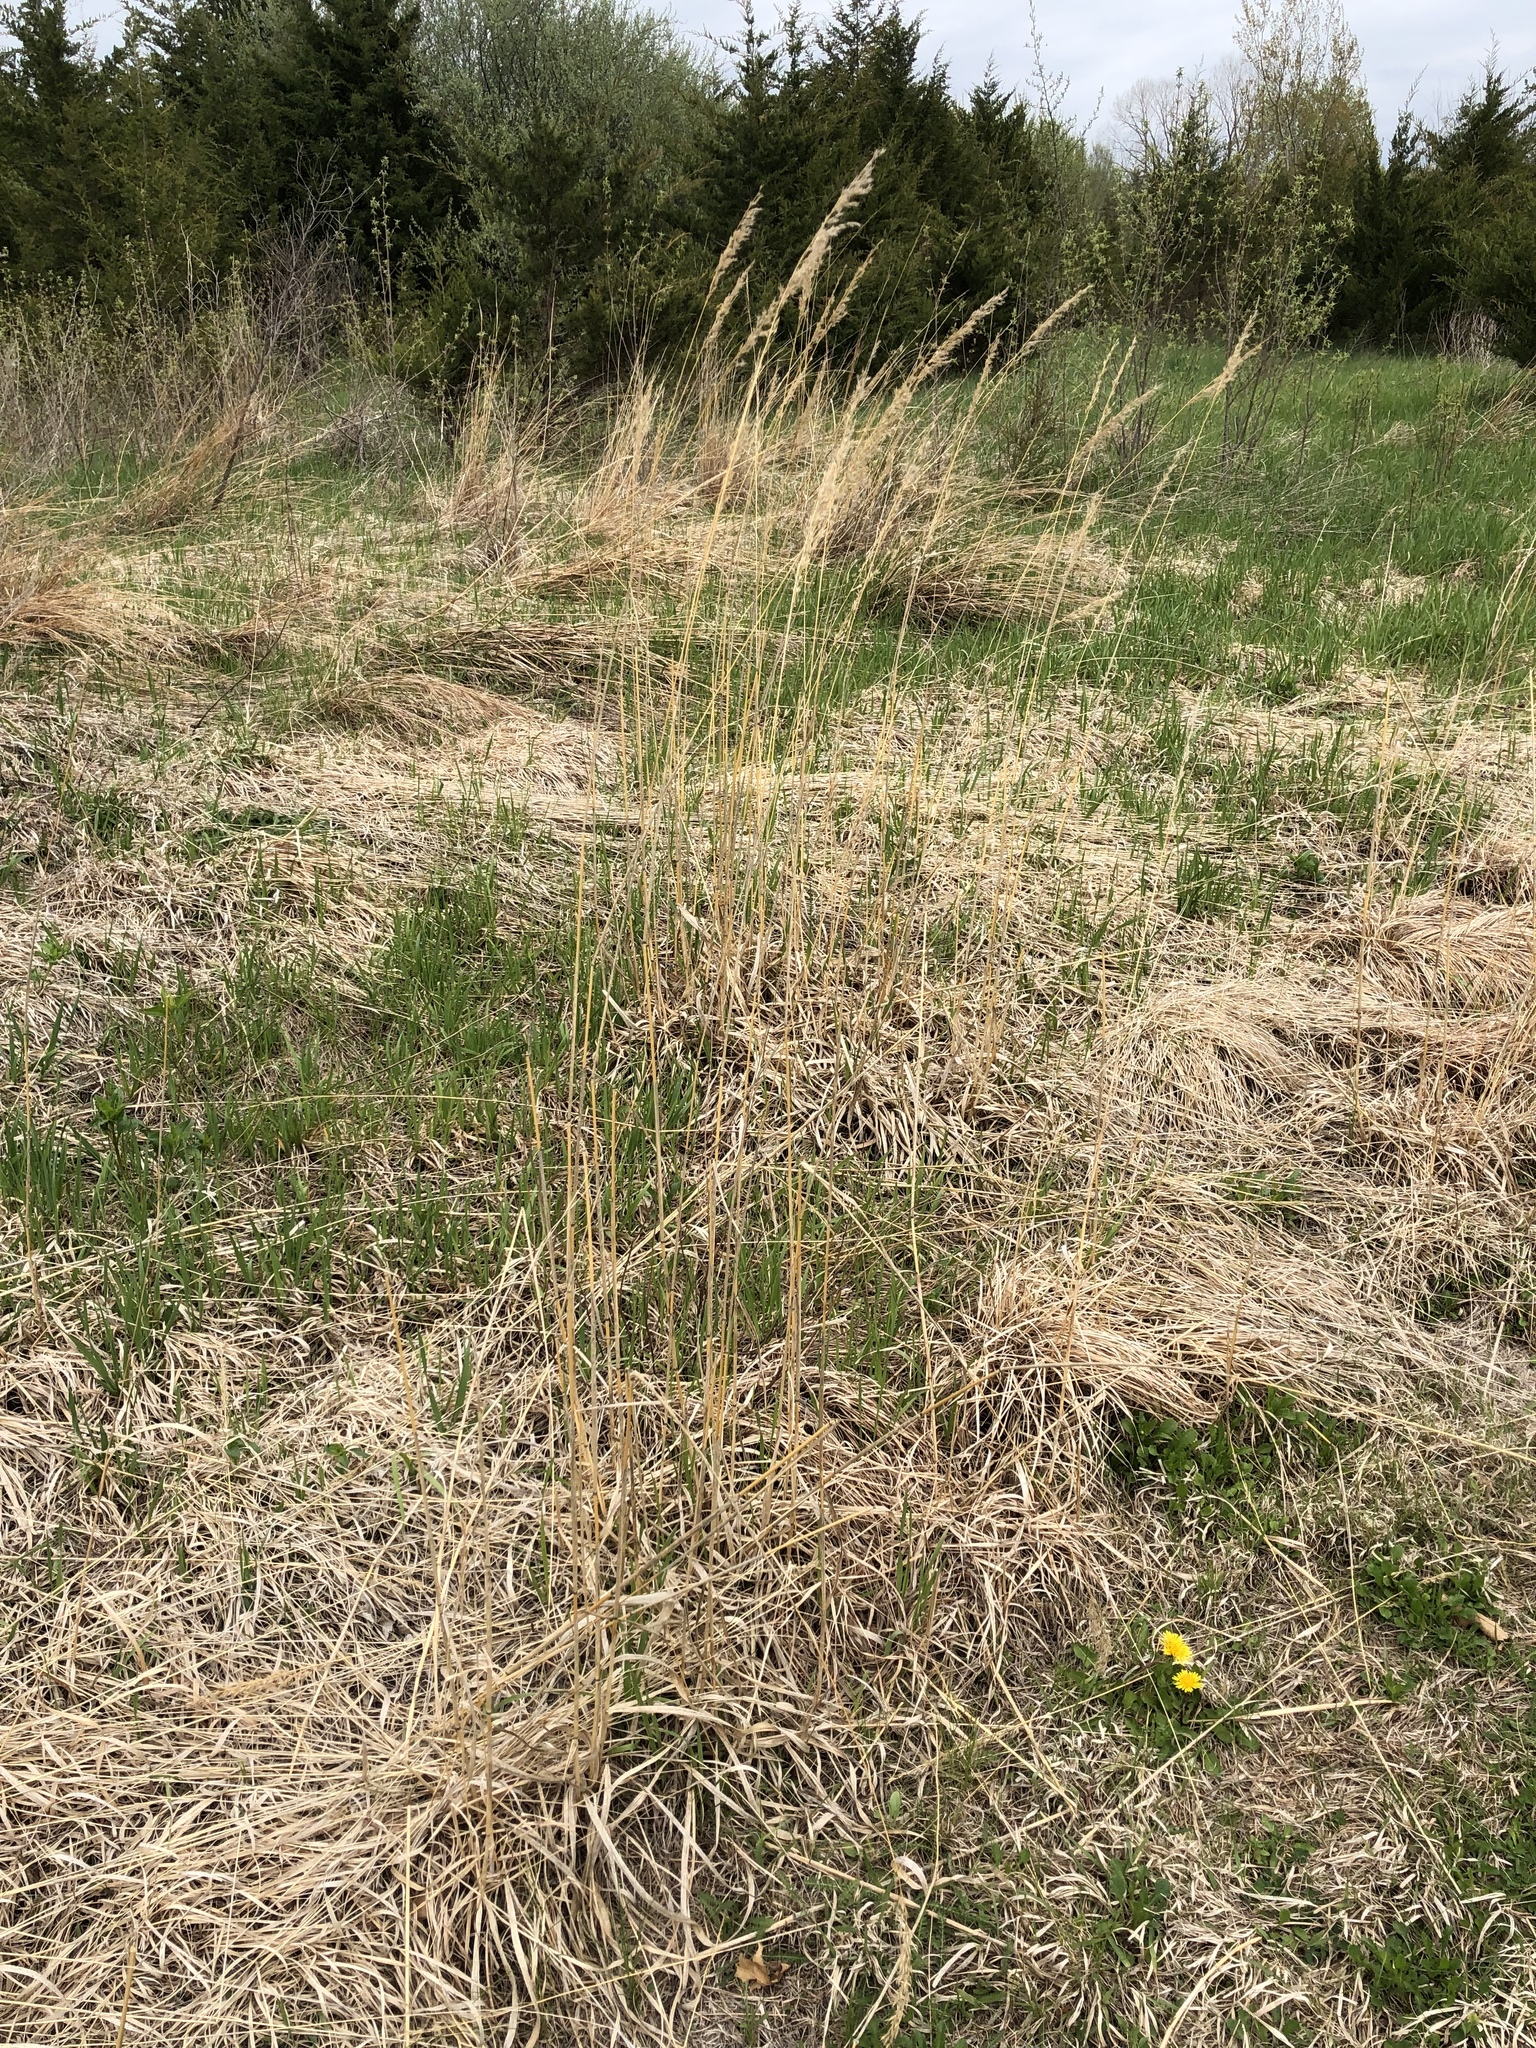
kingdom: Plantae
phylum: Tracheophyta
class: Liliopsida
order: Poales
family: Poaceae
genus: Sorghastrum
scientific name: Sorghastrum nutans
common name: Indian grass
